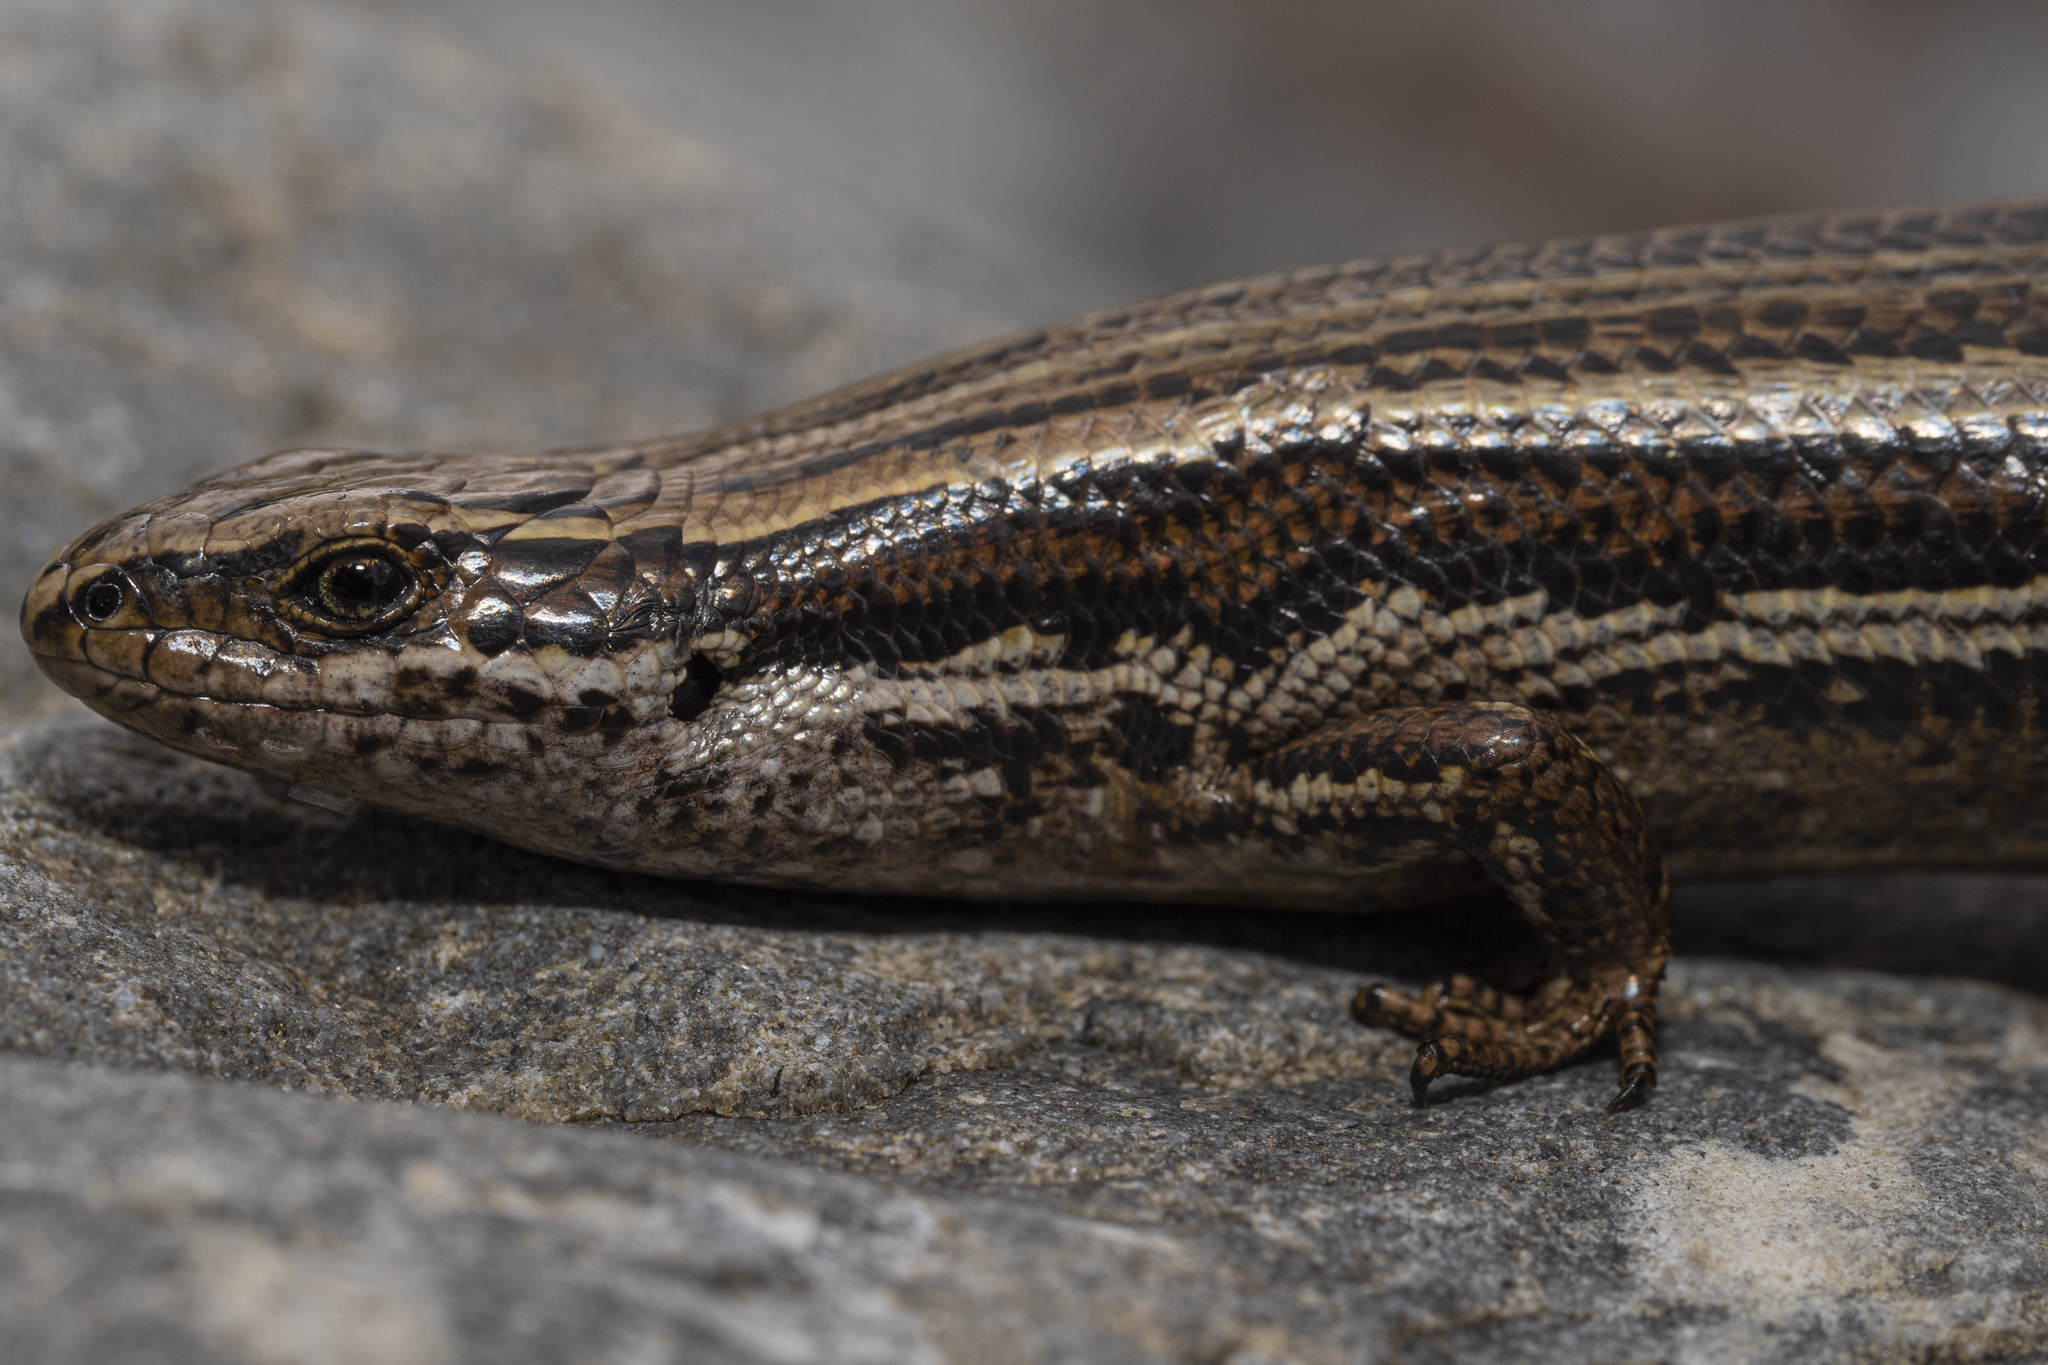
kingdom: Animalia
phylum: Chordata
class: Squamata
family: Scincidae
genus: Oligosoma
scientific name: Oligosoma polychroma
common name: Common new zealand skink
